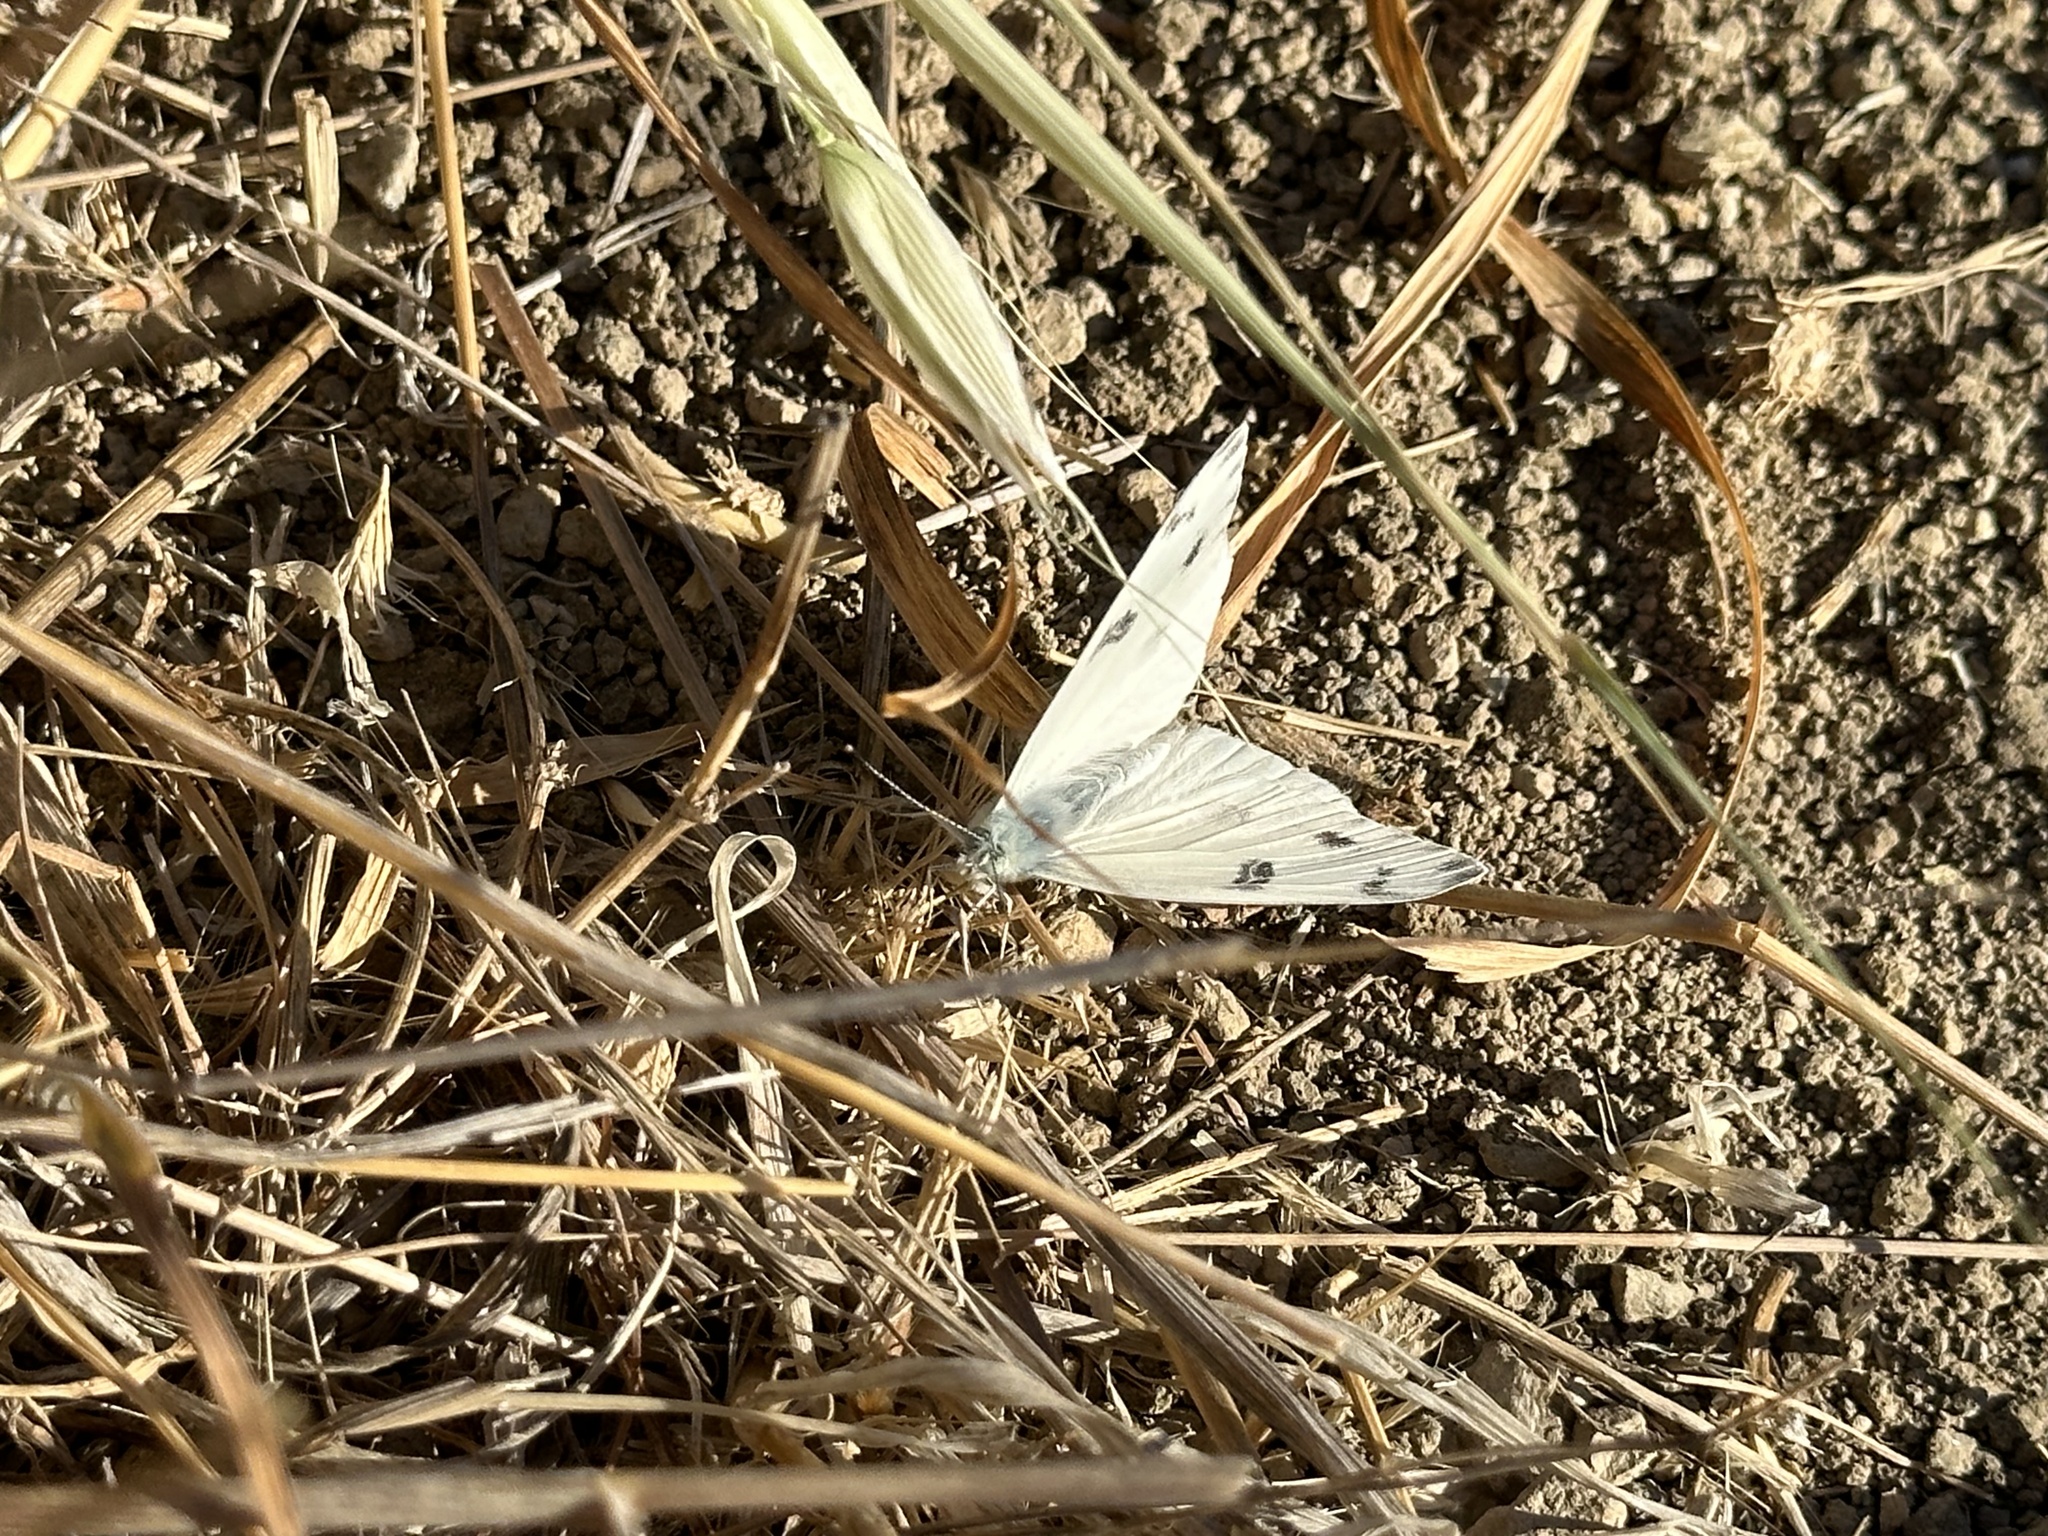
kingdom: Animalia
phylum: Arthropoda
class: Insecta
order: Lepidoptera
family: Pieridae
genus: Pontia
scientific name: Pontia protodice
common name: Checkered white
